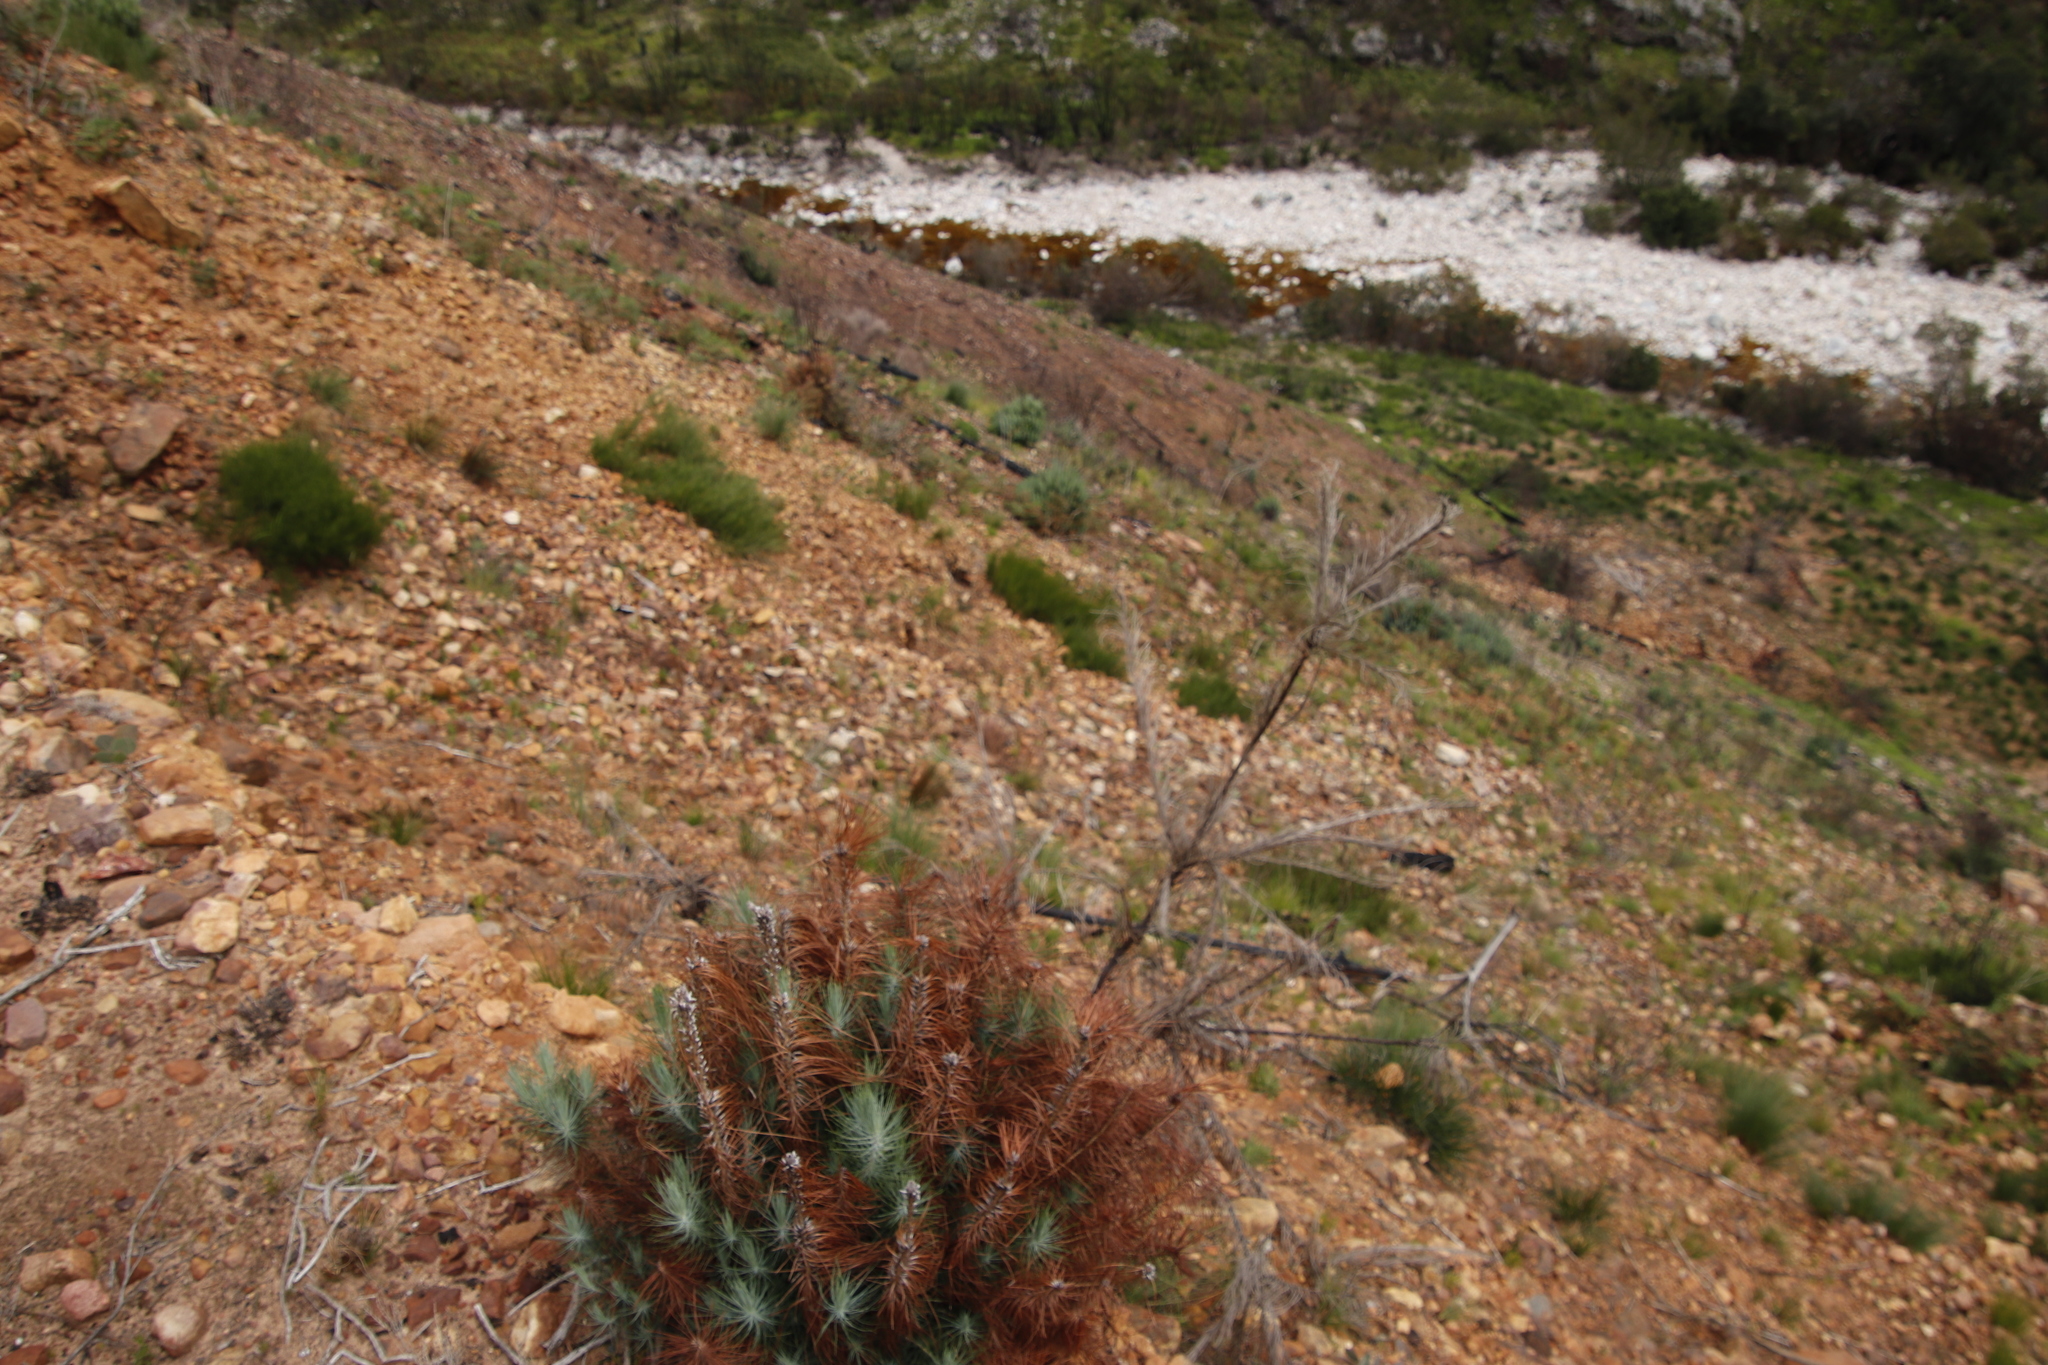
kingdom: Plantae
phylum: Tracheophyta
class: Pinopsida
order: Pinales
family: Pinaceae
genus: Pinus
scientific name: Pinus canariensis
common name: Canary islands pine
